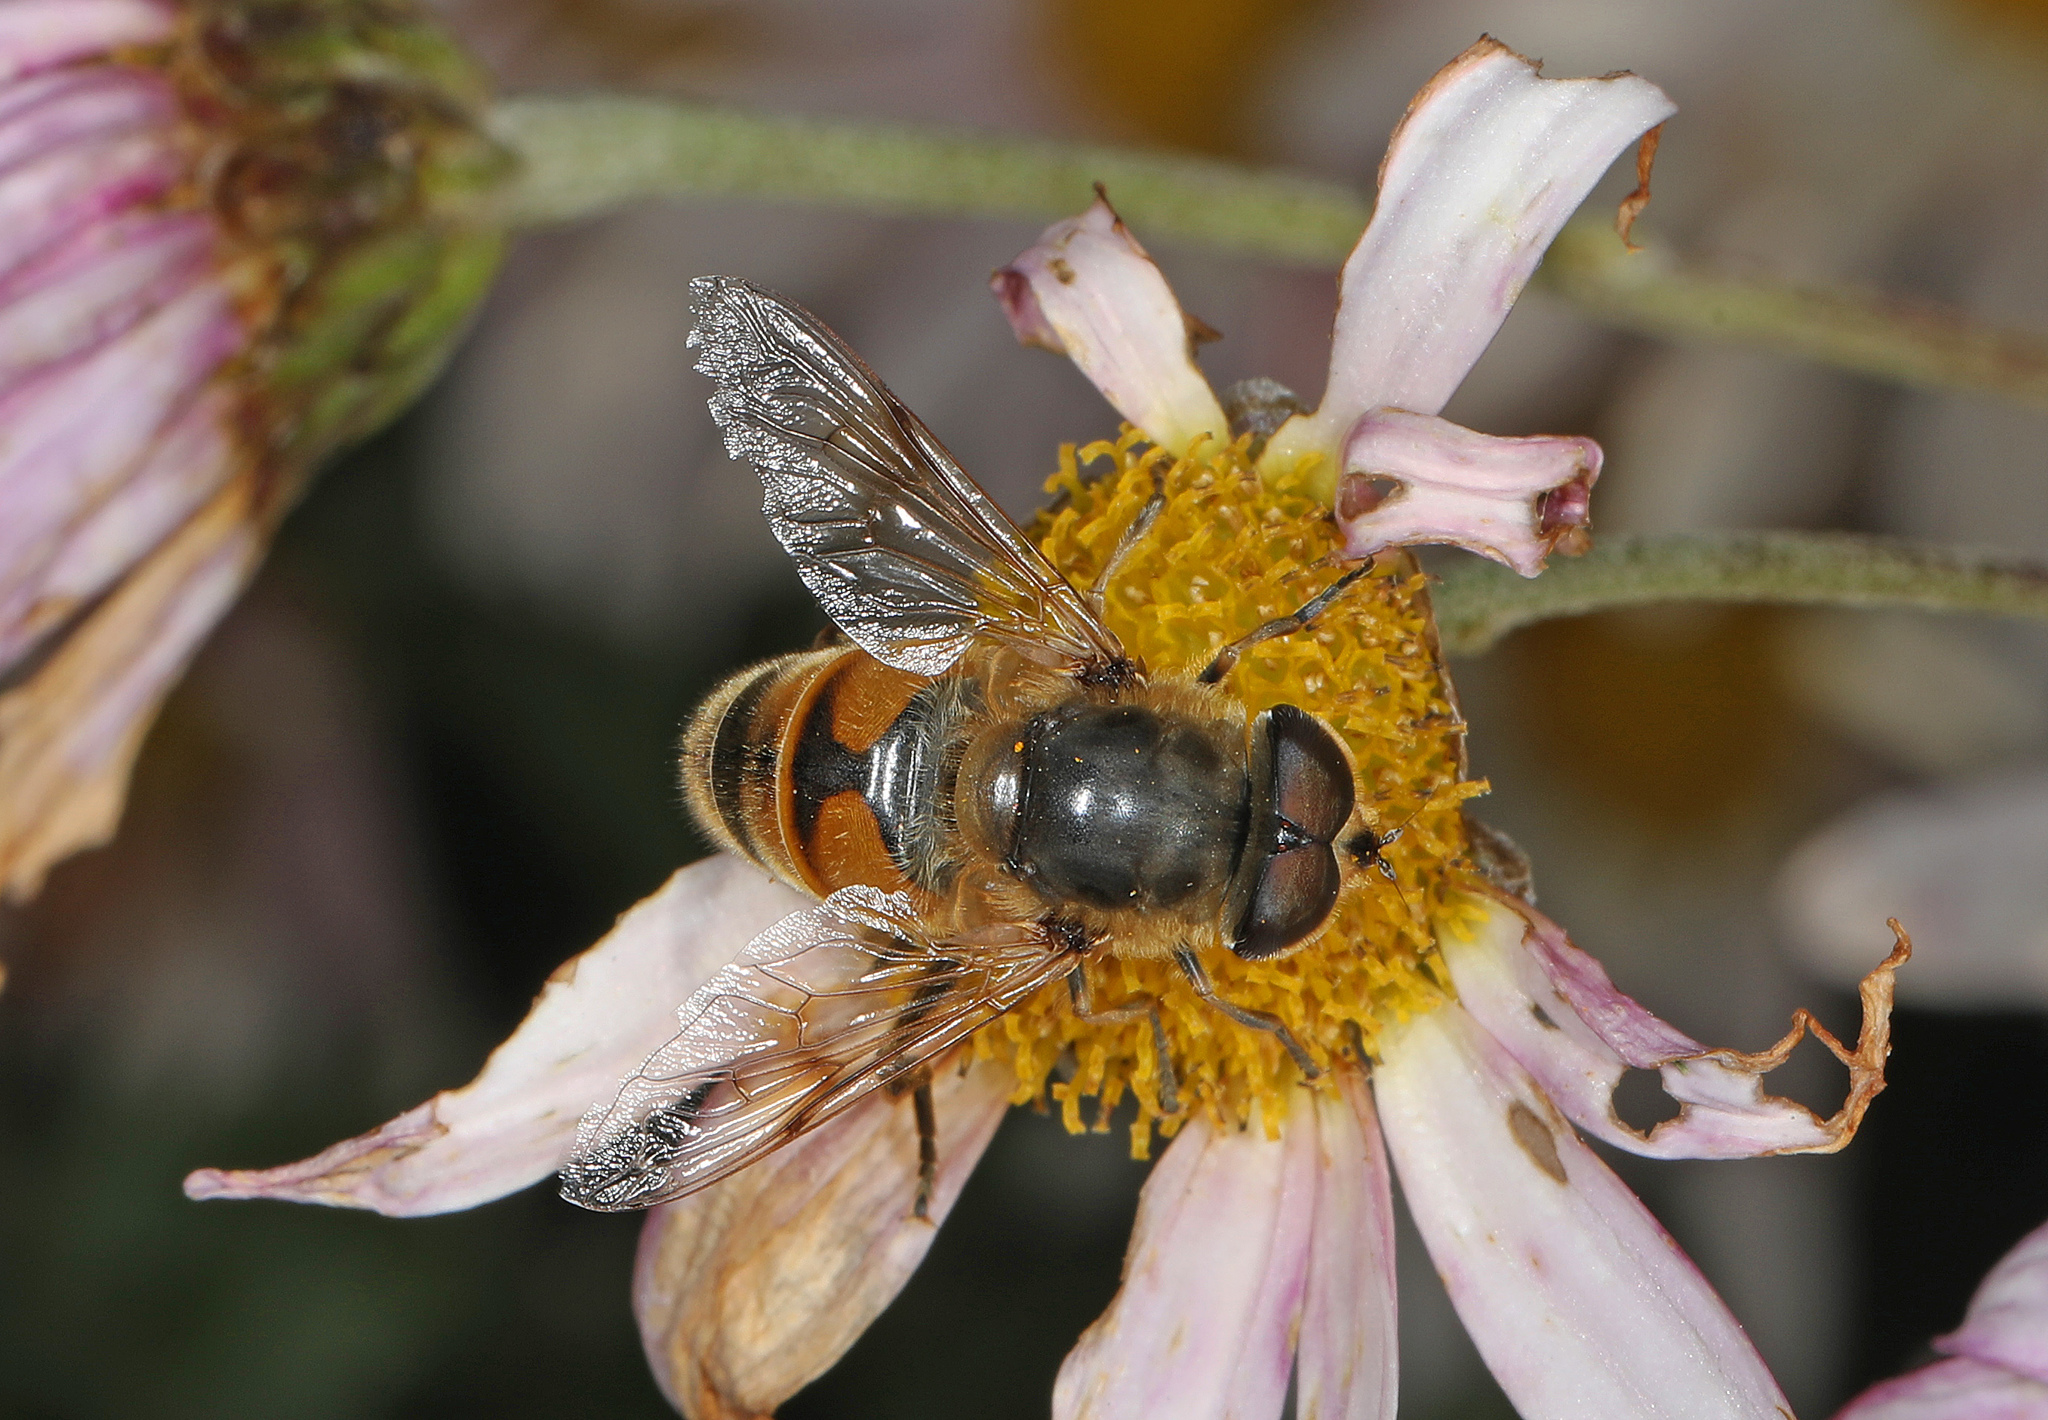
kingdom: Animalia
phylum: Arthropoda
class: Insecta
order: Diptera
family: Syrphidae
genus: Eristalis
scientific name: Eristalis tenax
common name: Drone fly
